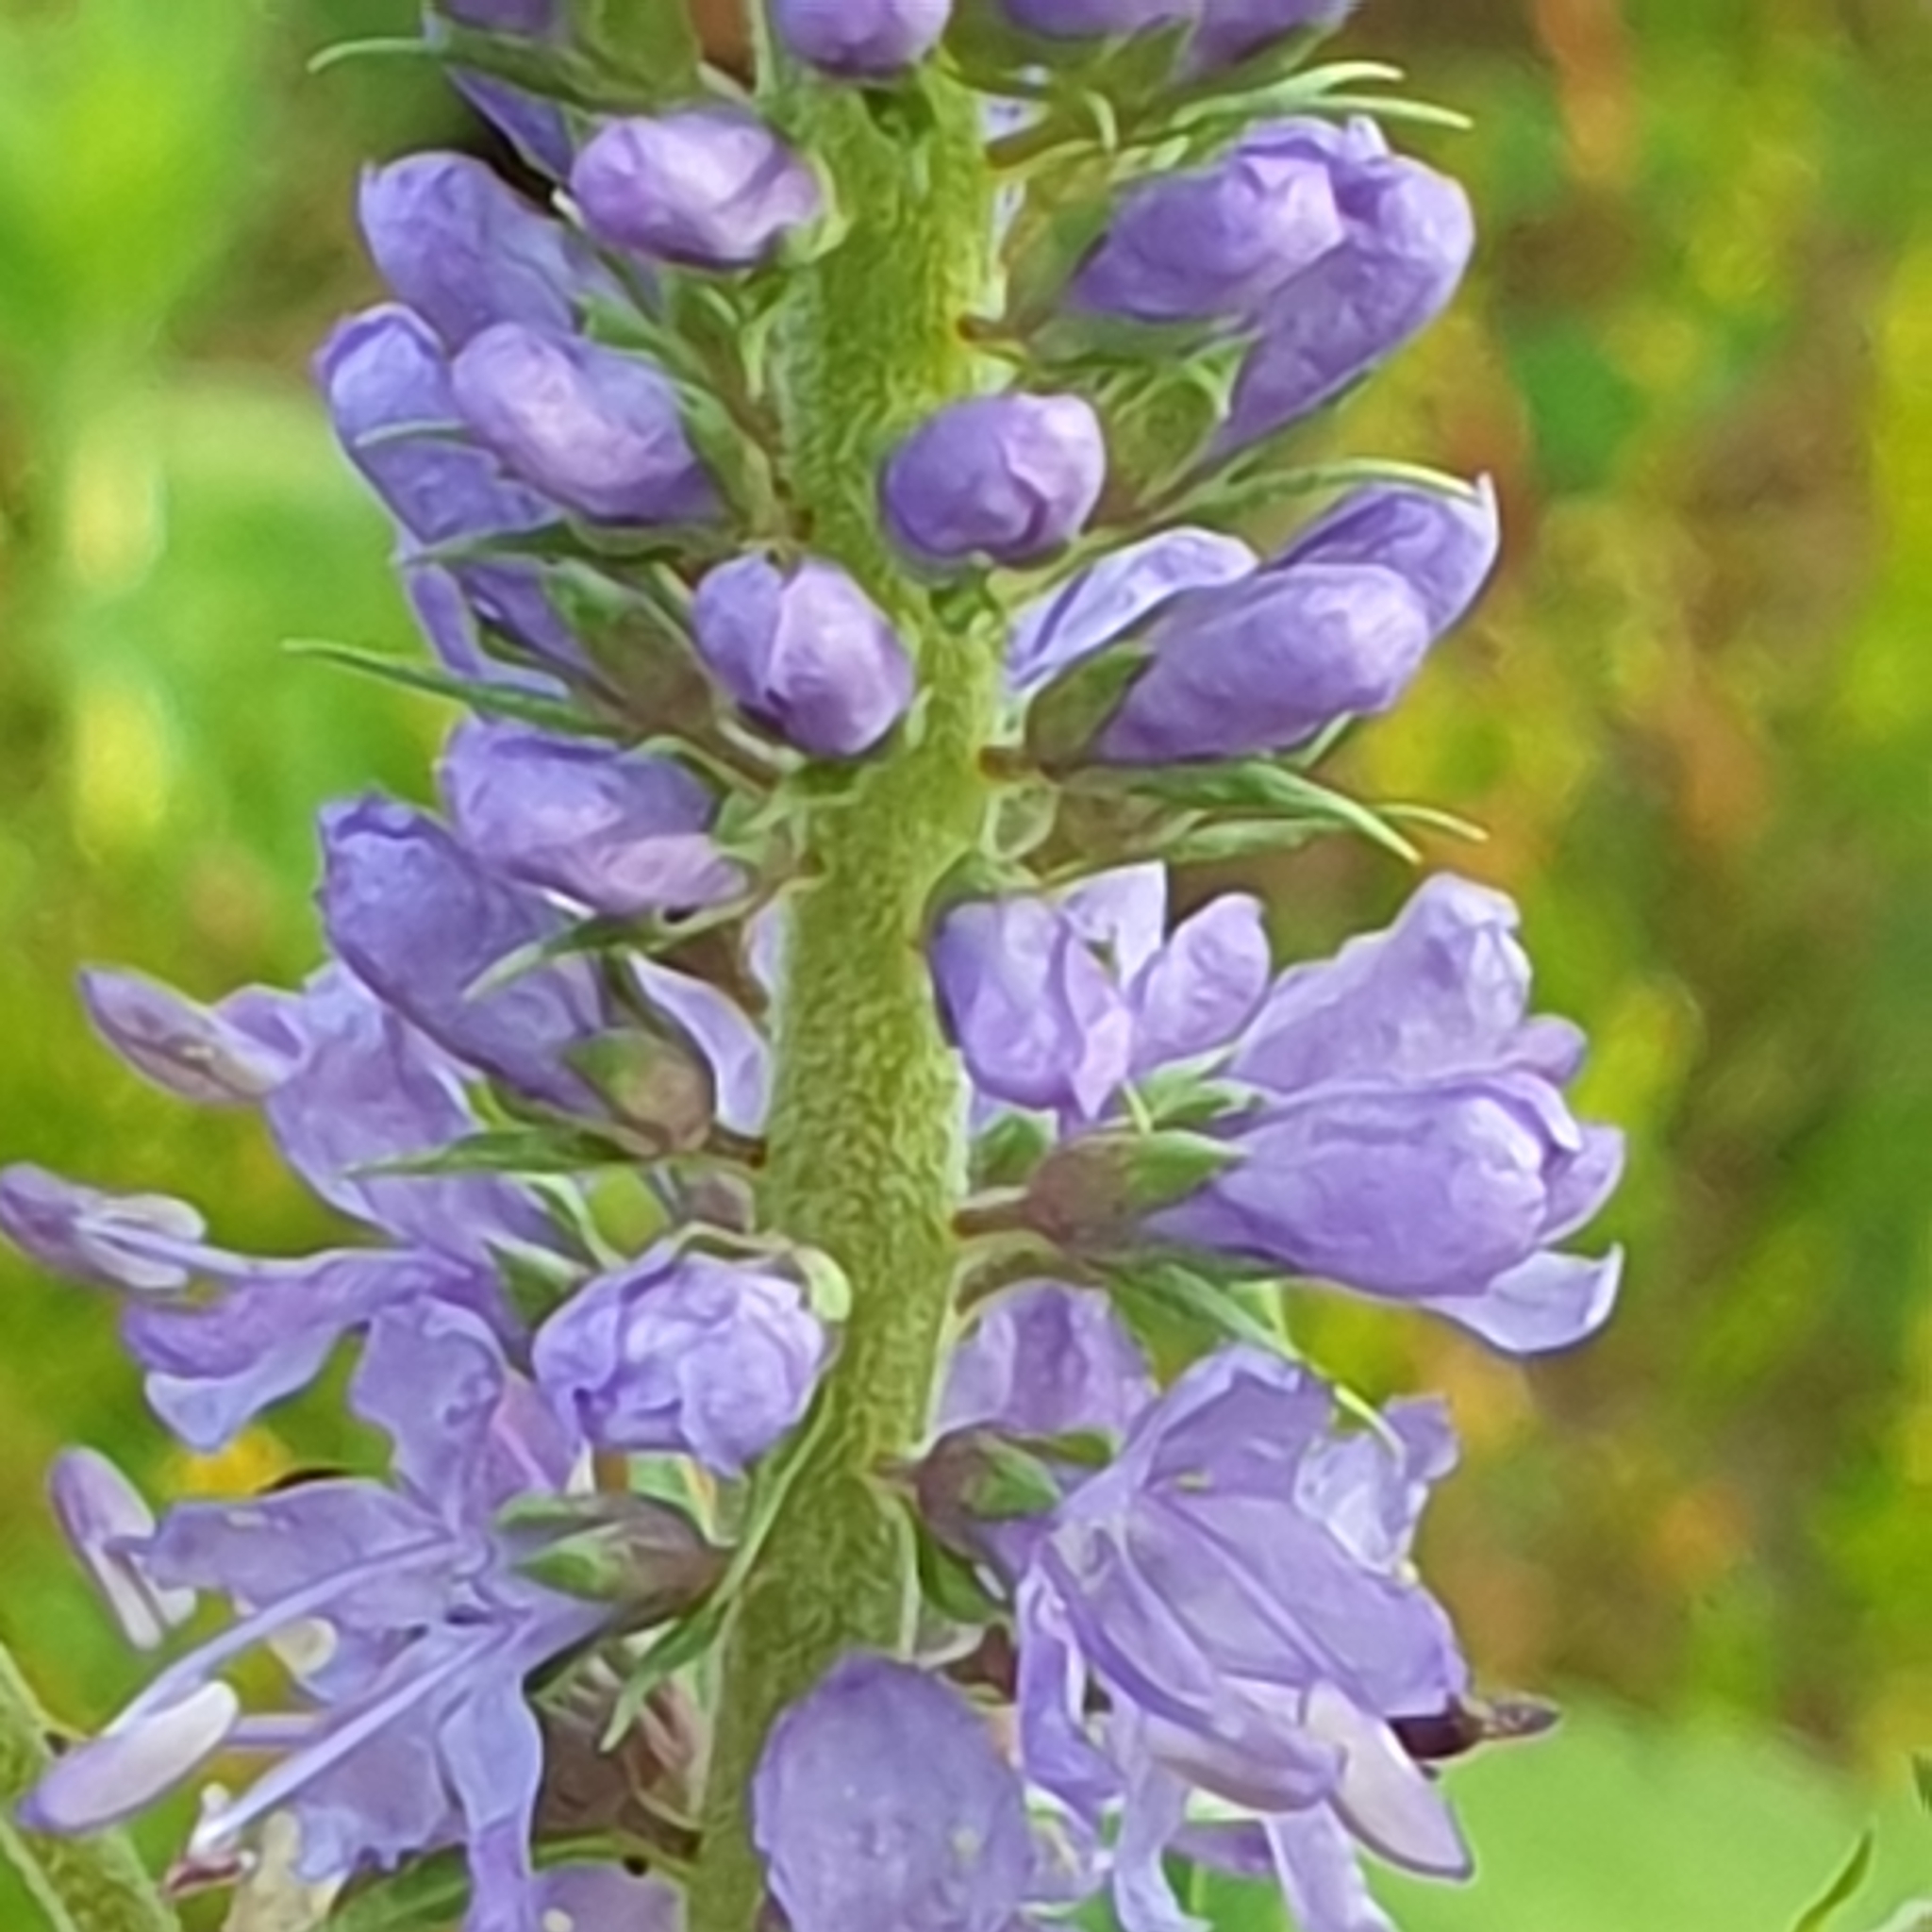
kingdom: Plantae
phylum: Tracheophyta
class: Magnoliopsida
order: Lamiales
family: Plantaginaceae
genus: Veronica
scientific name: Veronica longifolia
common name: Garden speedwell
